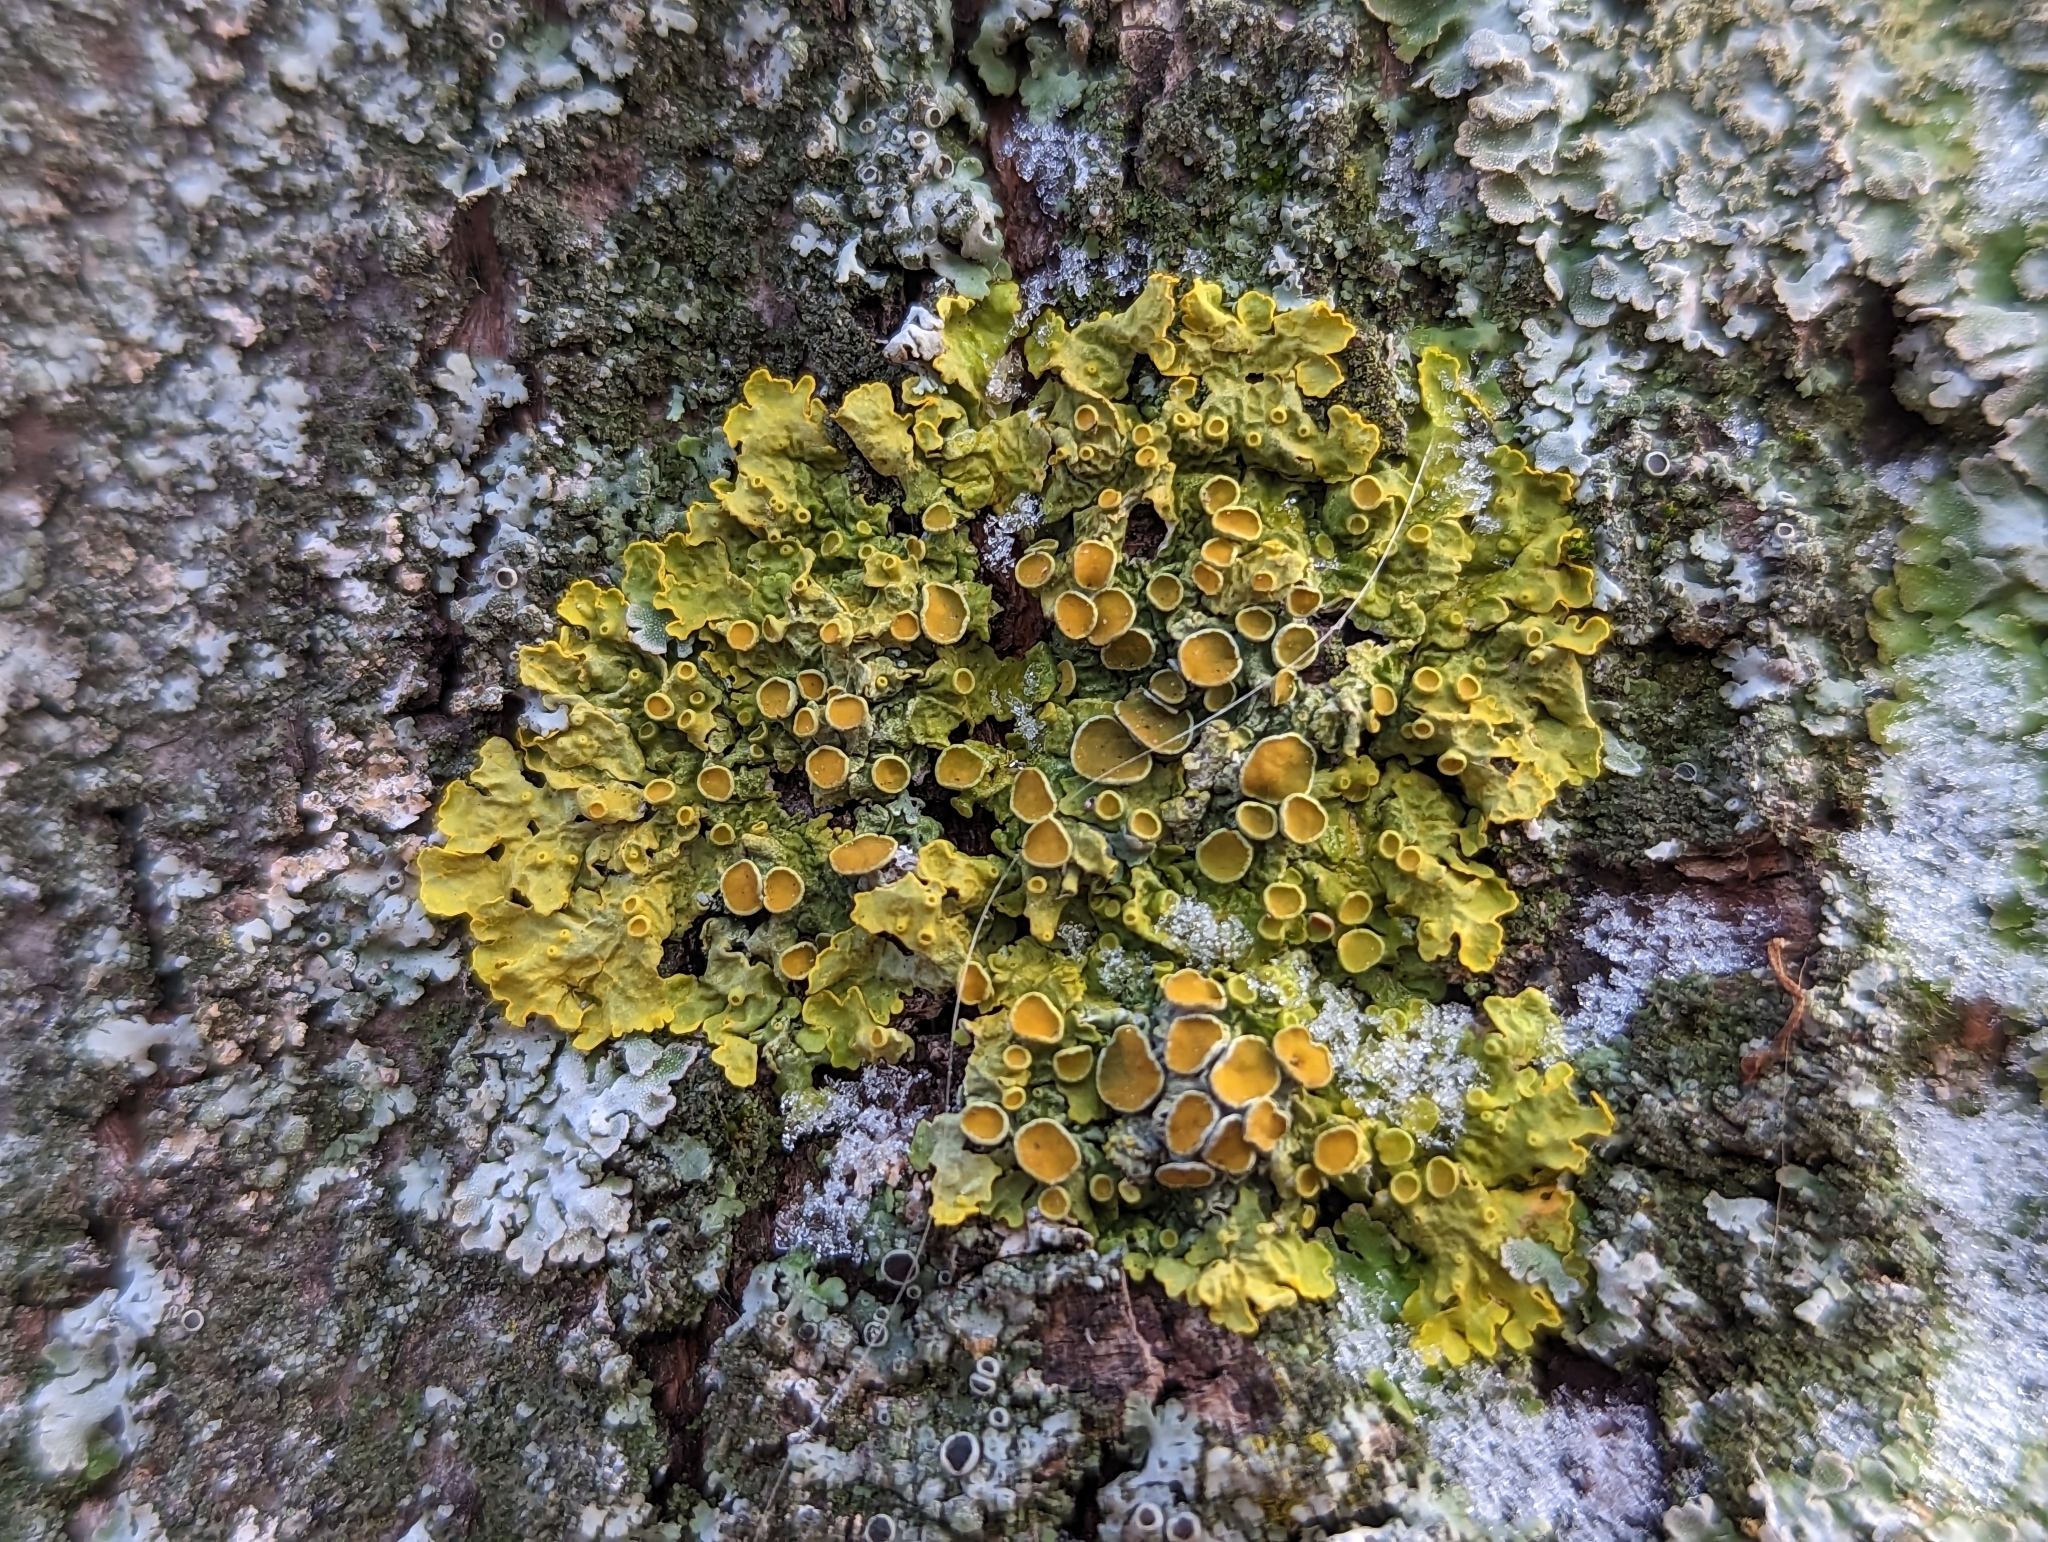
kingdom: Fungi
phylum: Ascomycota
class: Lecanoromycetes
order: Teloschistales
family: Teloschistaceae
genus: Xanthoria
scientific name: Xanthoria parietina
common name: Common orange lichen
